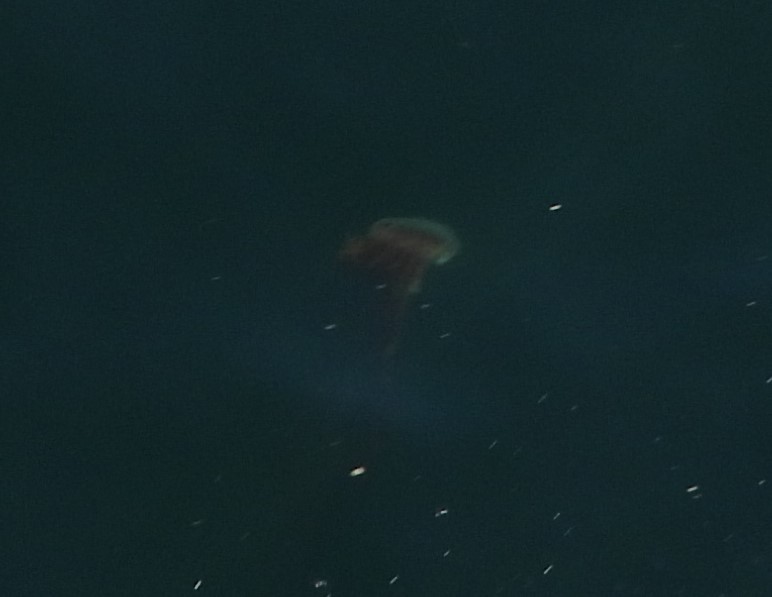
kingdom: Animalia
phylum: Cnidaria
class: Scyphozoa
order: Semaeostomeae
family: Cyaneidae
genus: Cyanea
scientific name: Cyanea ferruginea
